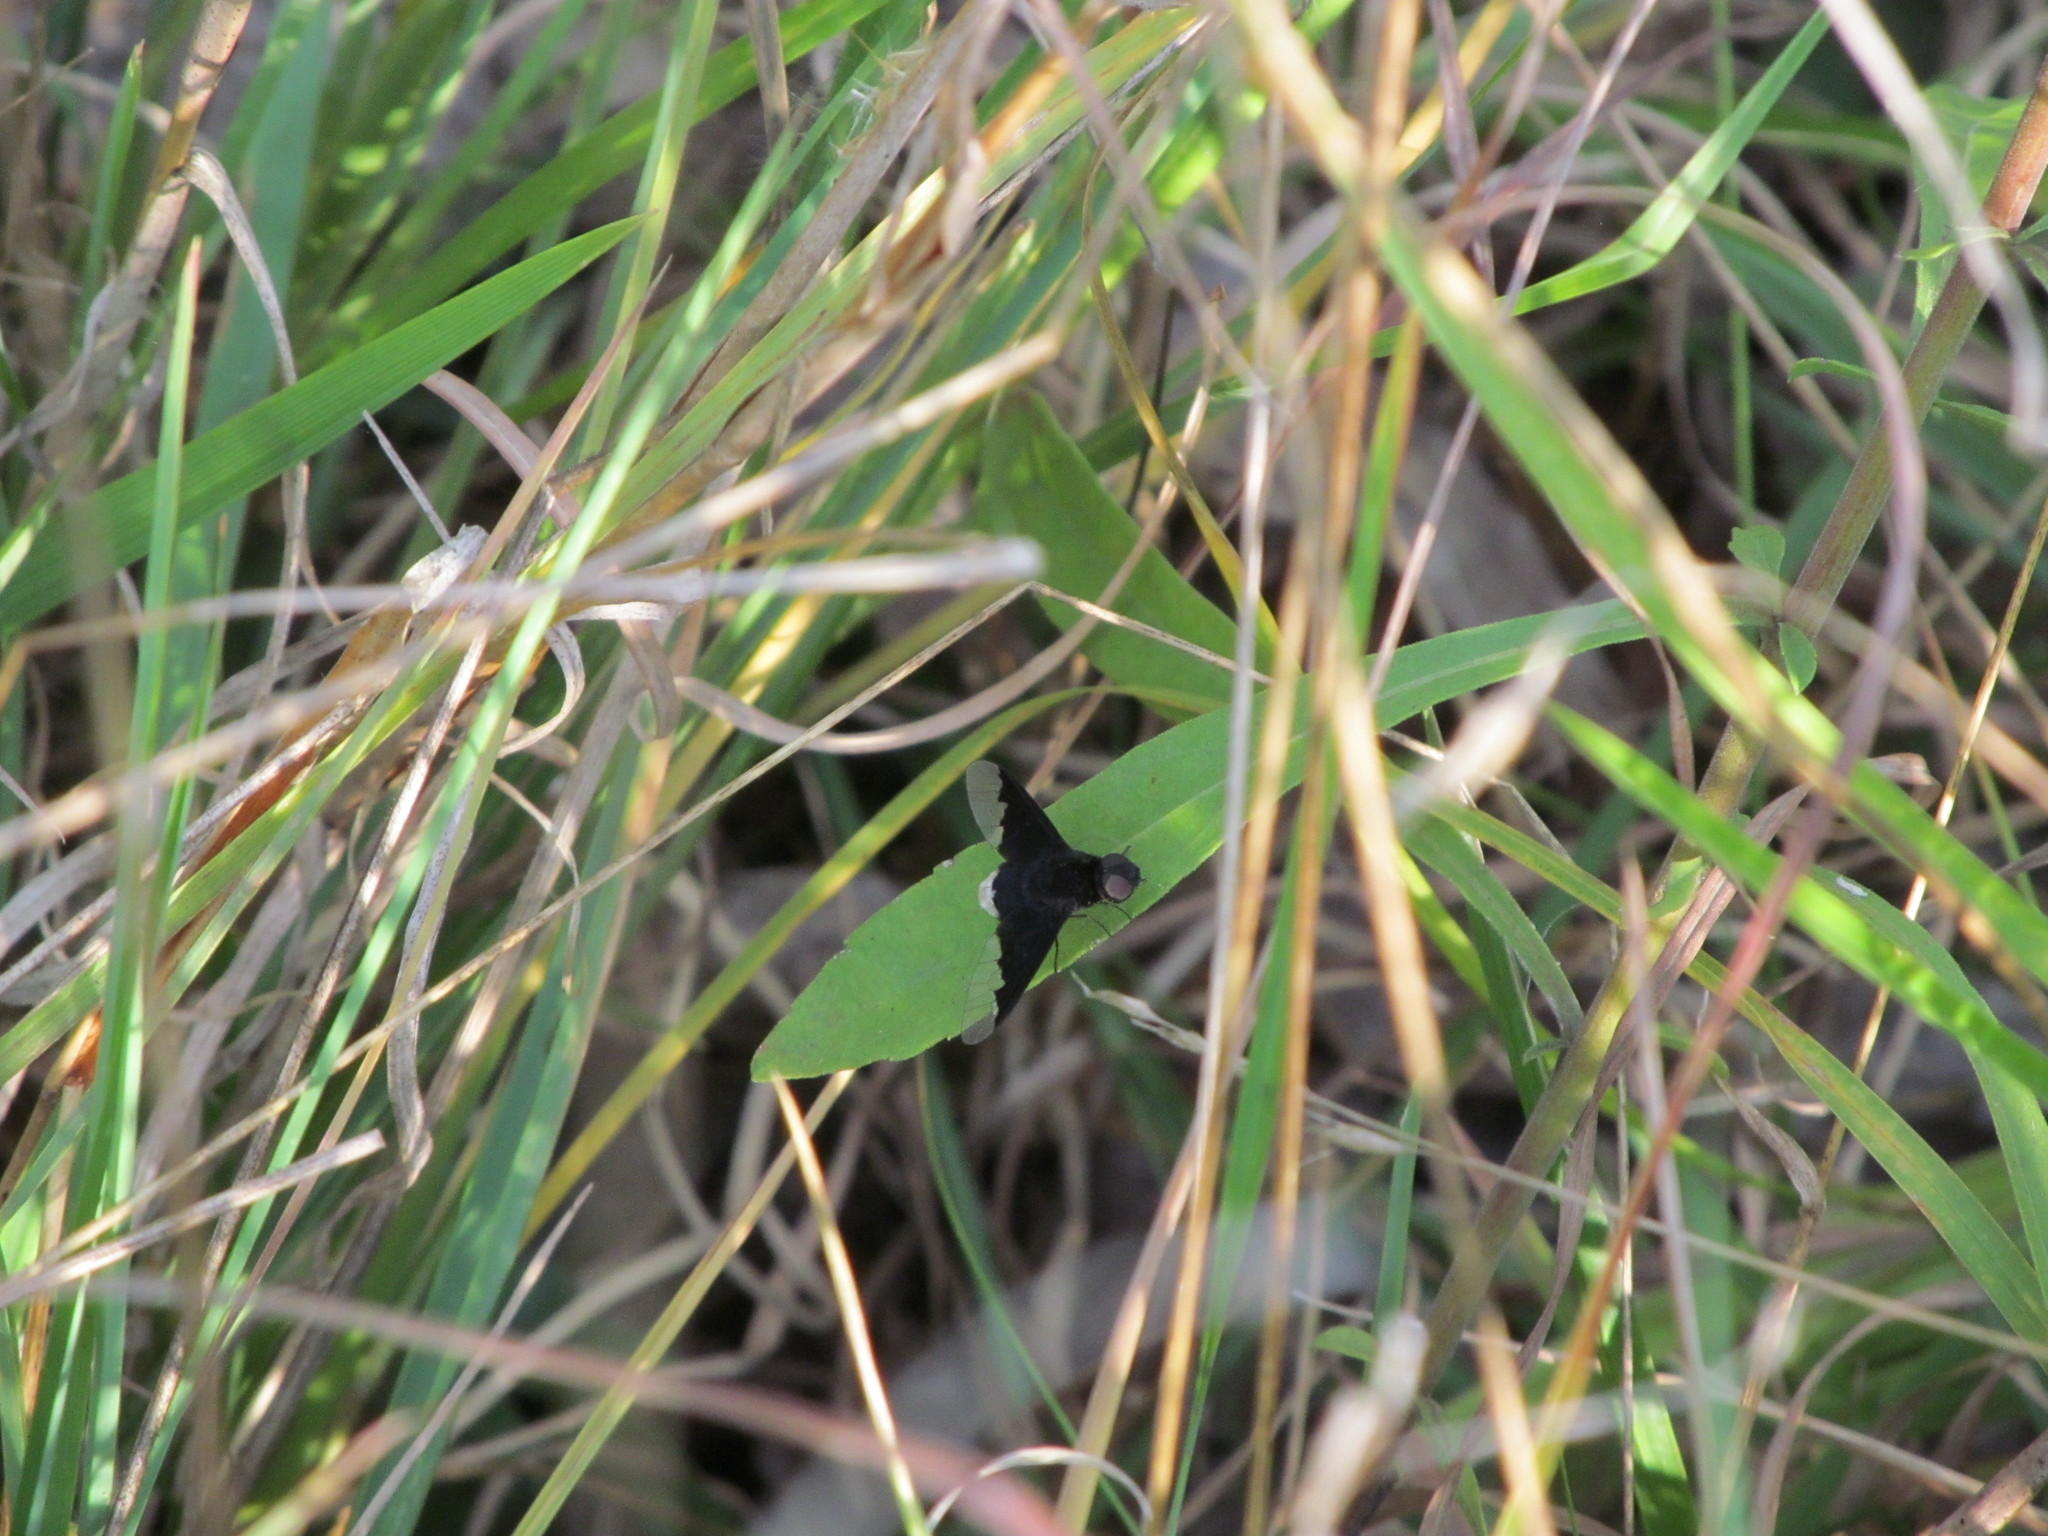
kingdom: Animalia
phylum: Arthropoda
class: Insecta
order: Diptera
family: Bombyliidae
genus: Anthrax
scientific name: Anthrax analis
